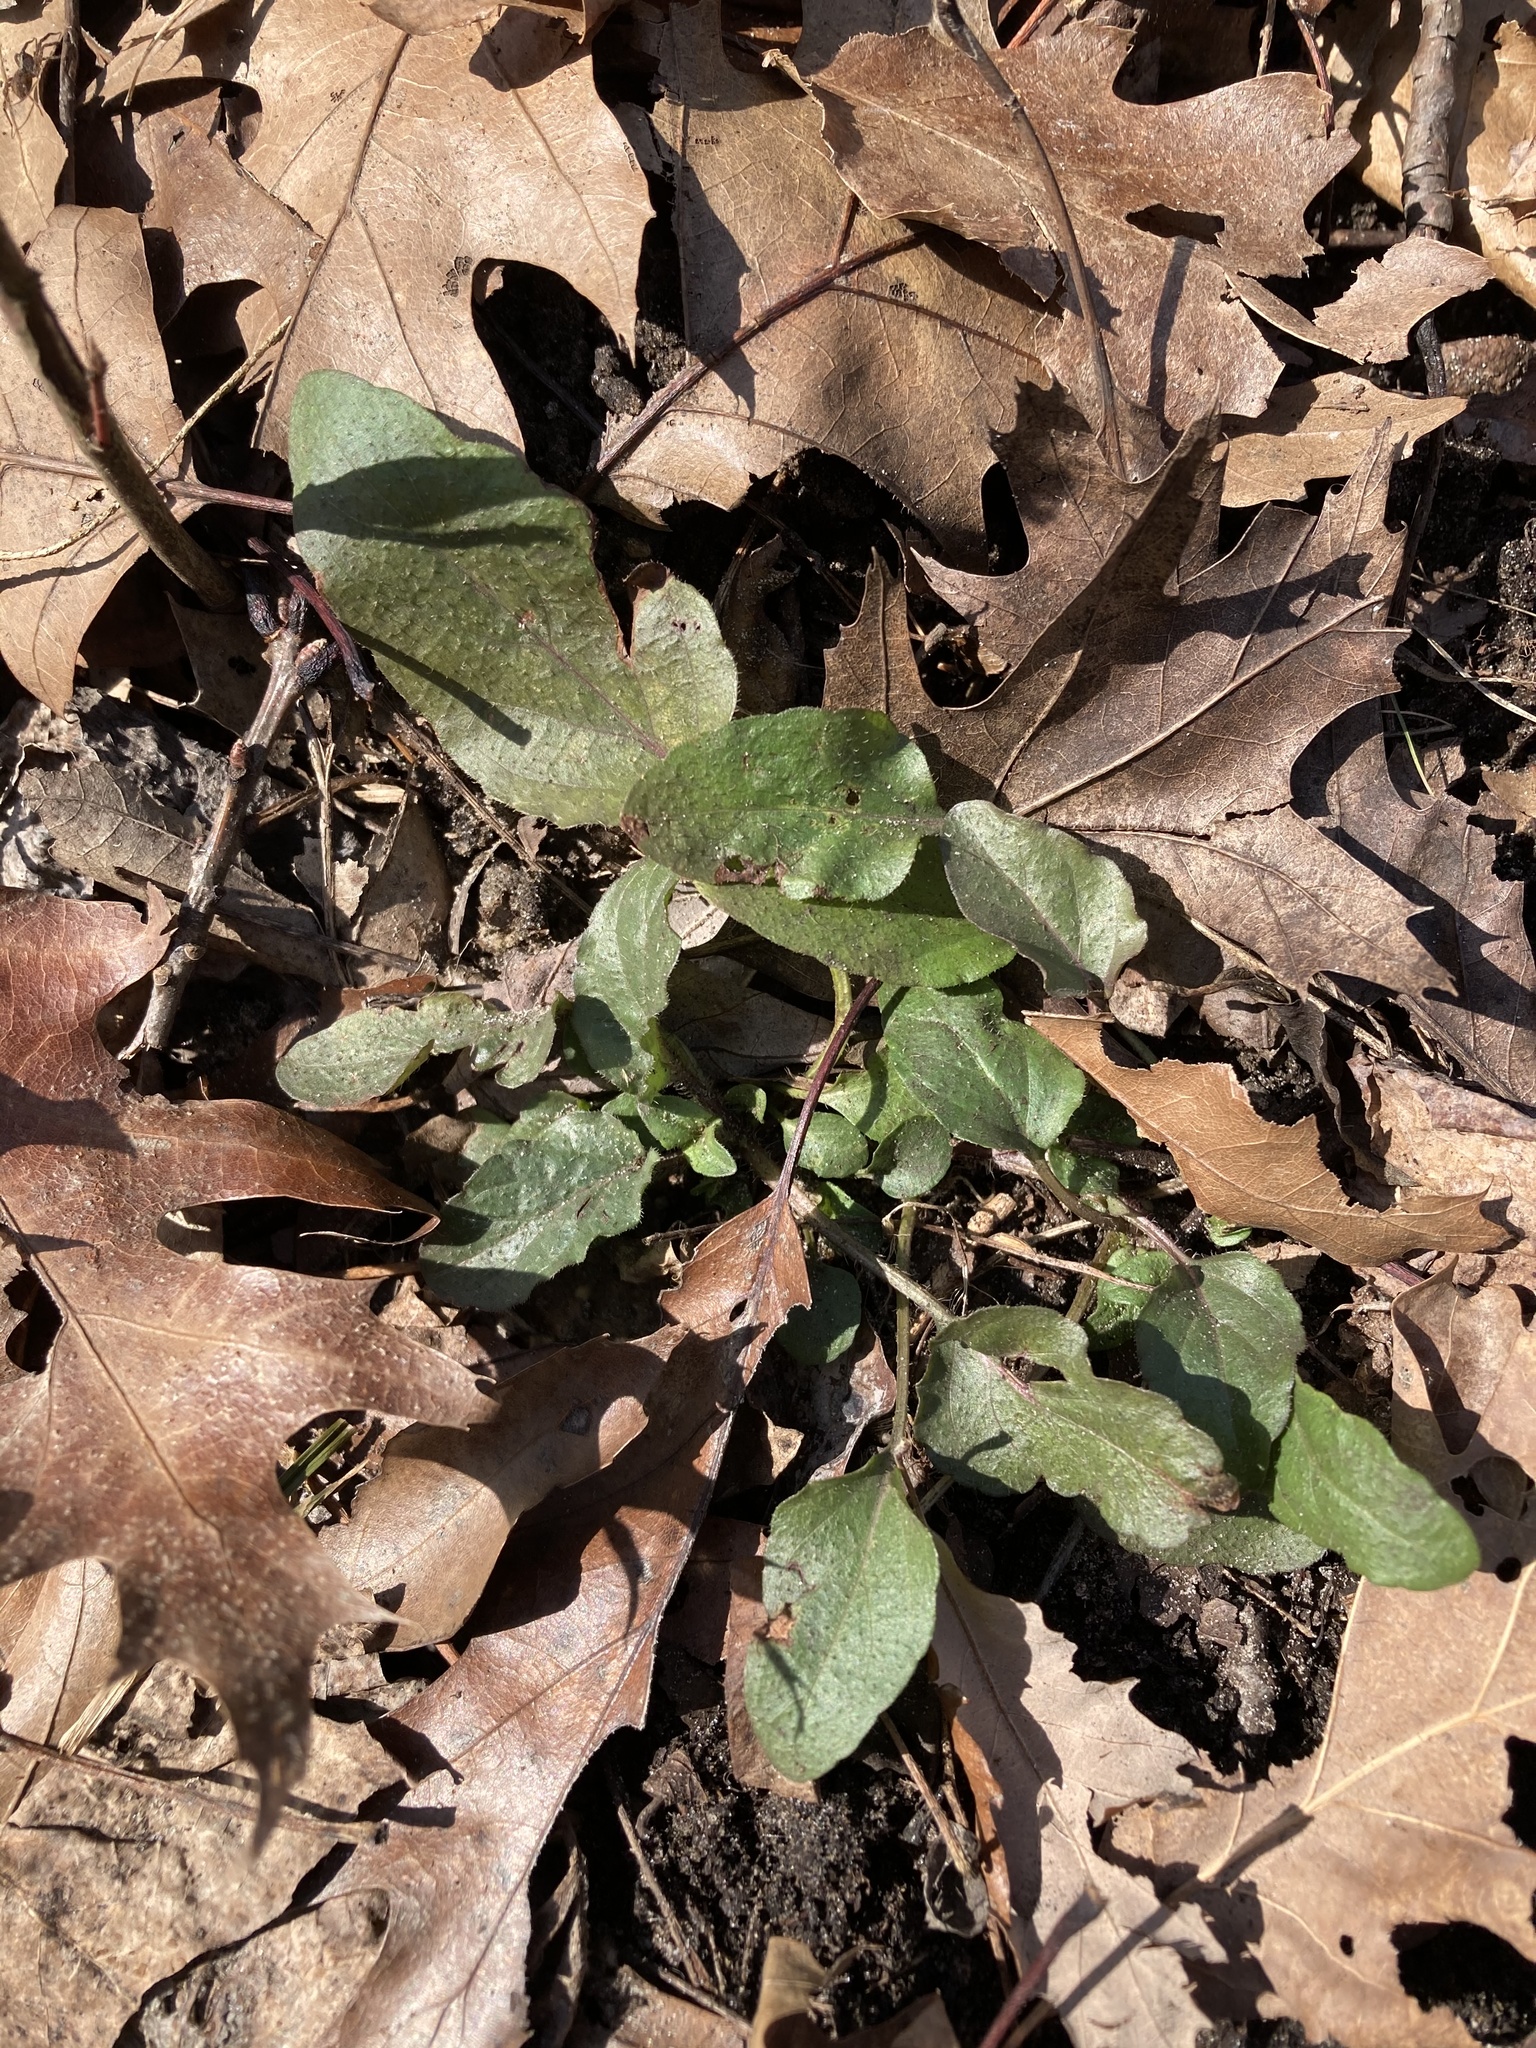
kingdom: Plantae
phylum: Tracheophyta
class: Magnoliopsida
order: Lamiales
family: Lamiaceae
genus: Prunella
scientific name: Prunella vulgaris
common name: Heal-all
